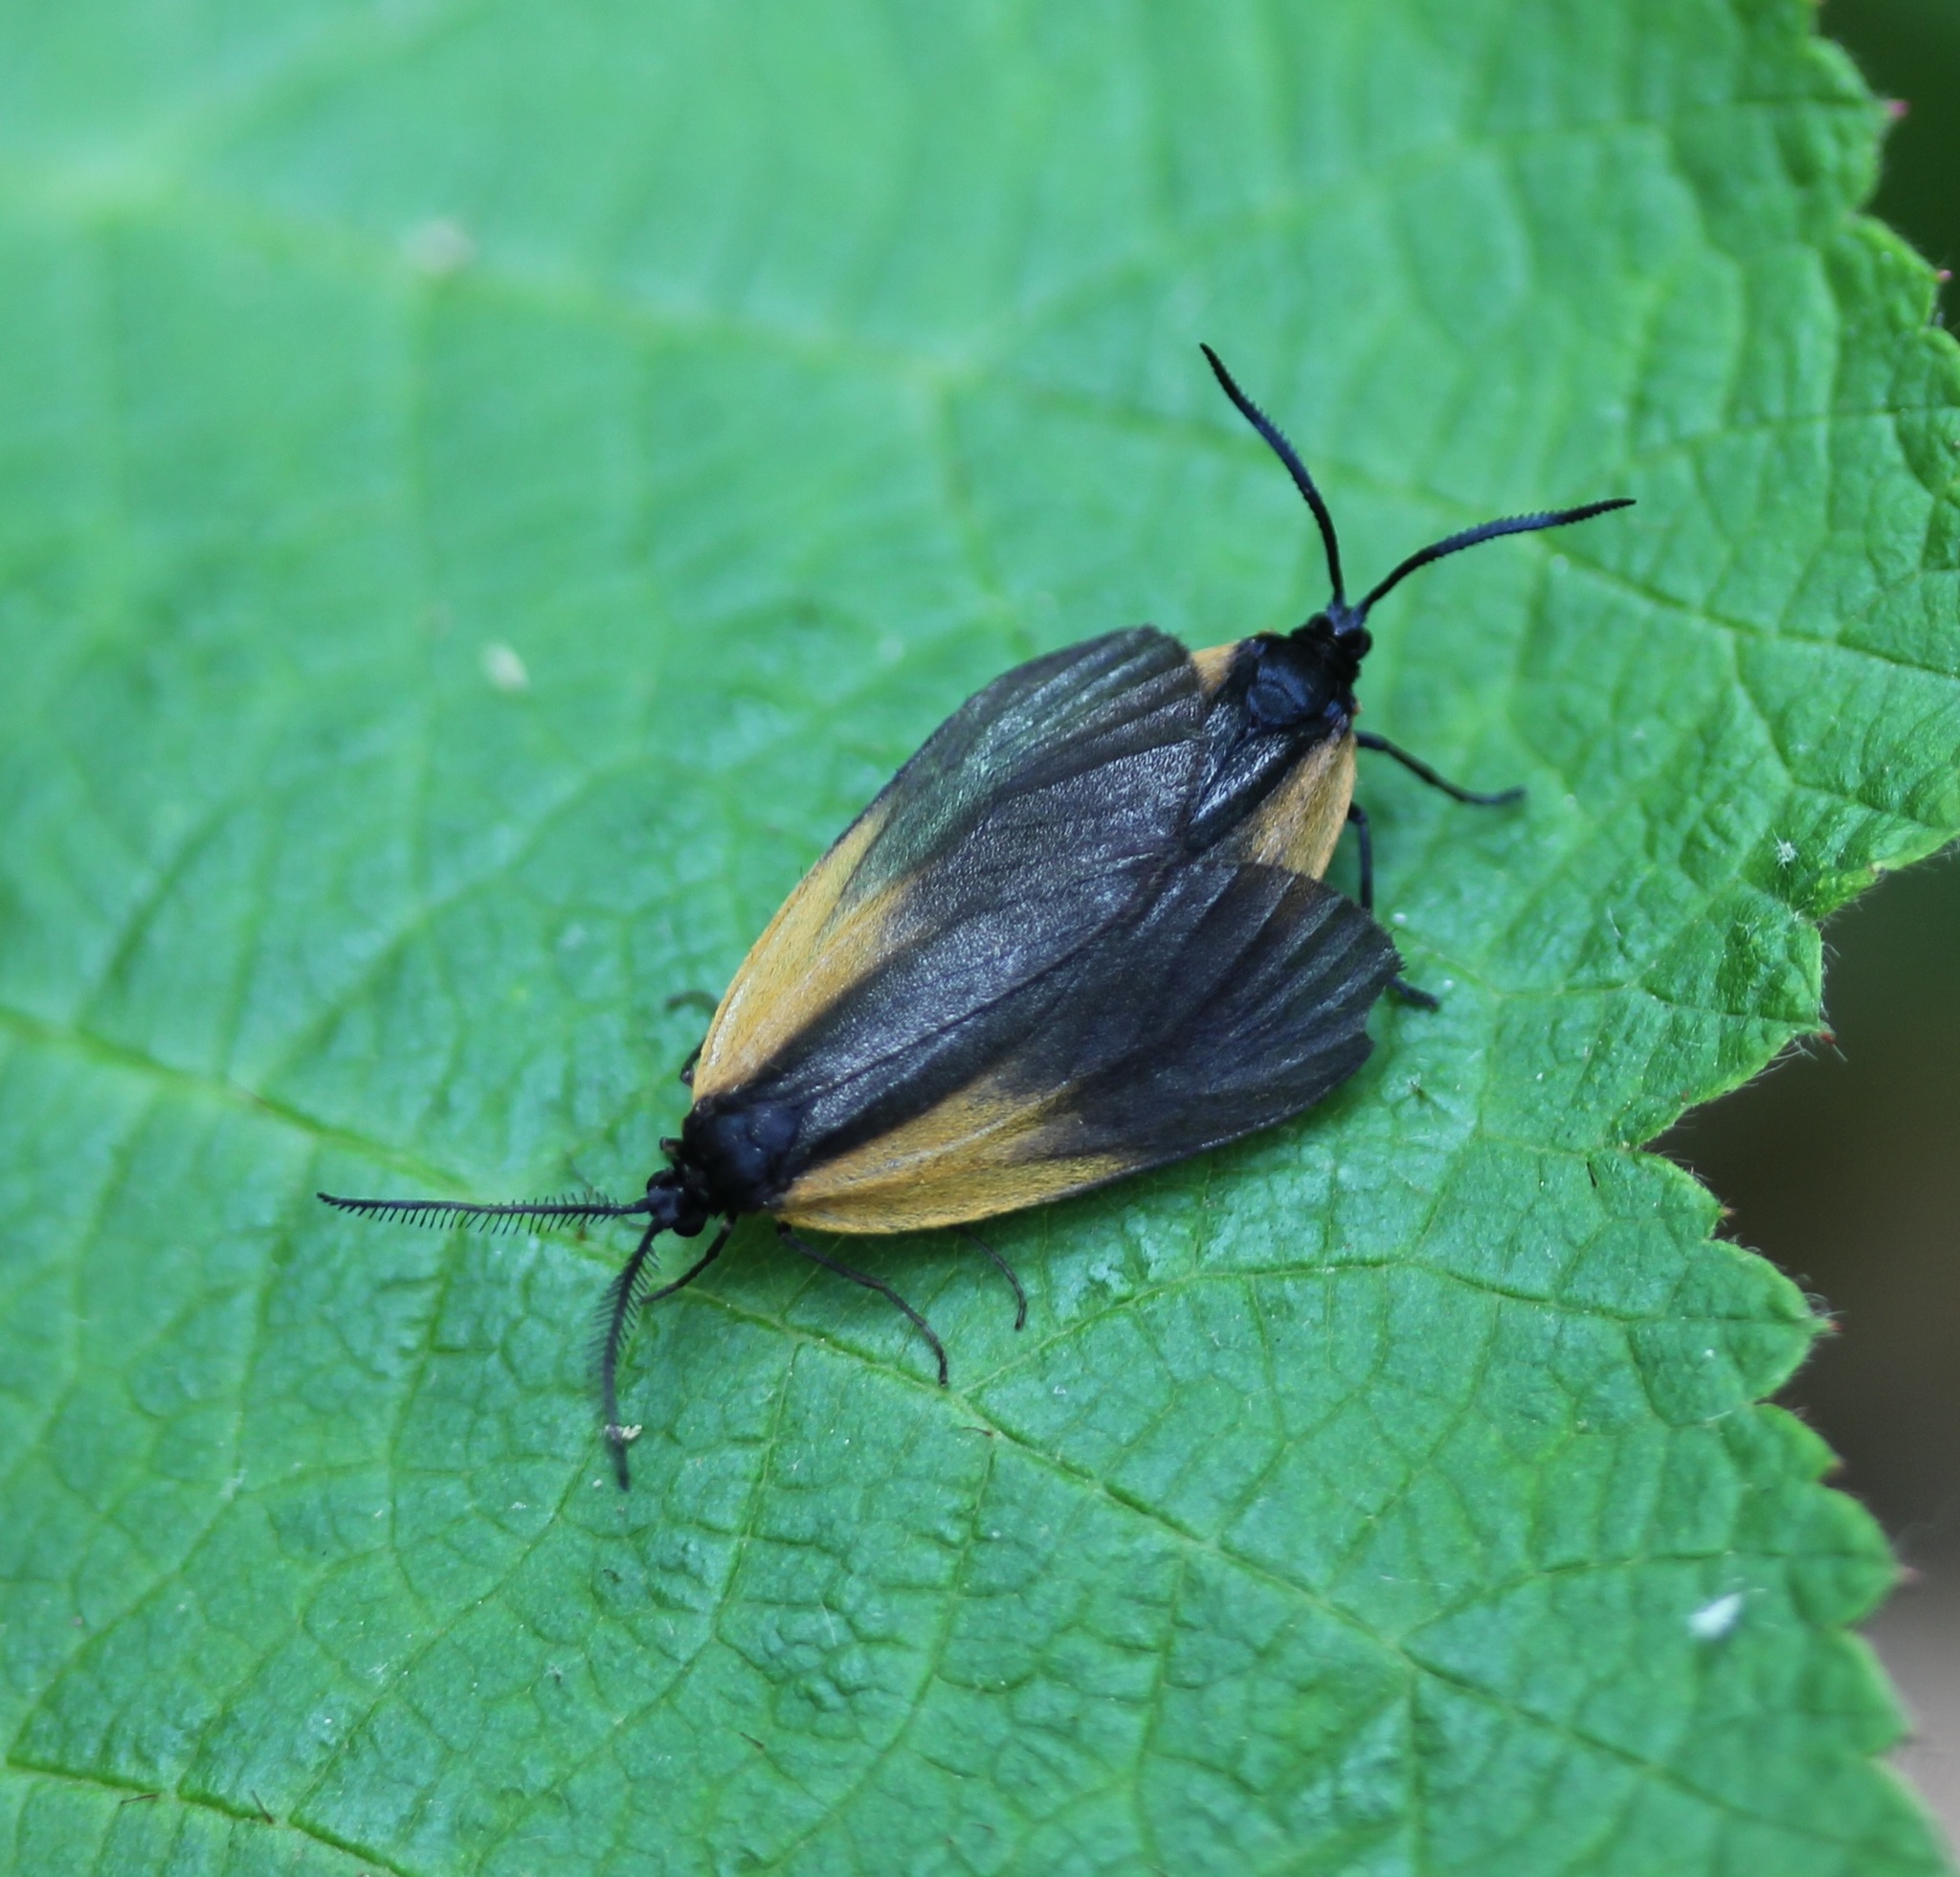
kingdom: Animalia
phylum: Arthropoda
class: Insecta
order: Lepidoptera
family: Zygaenidae
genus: Malthaca
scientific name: Malthaca dimidiata
